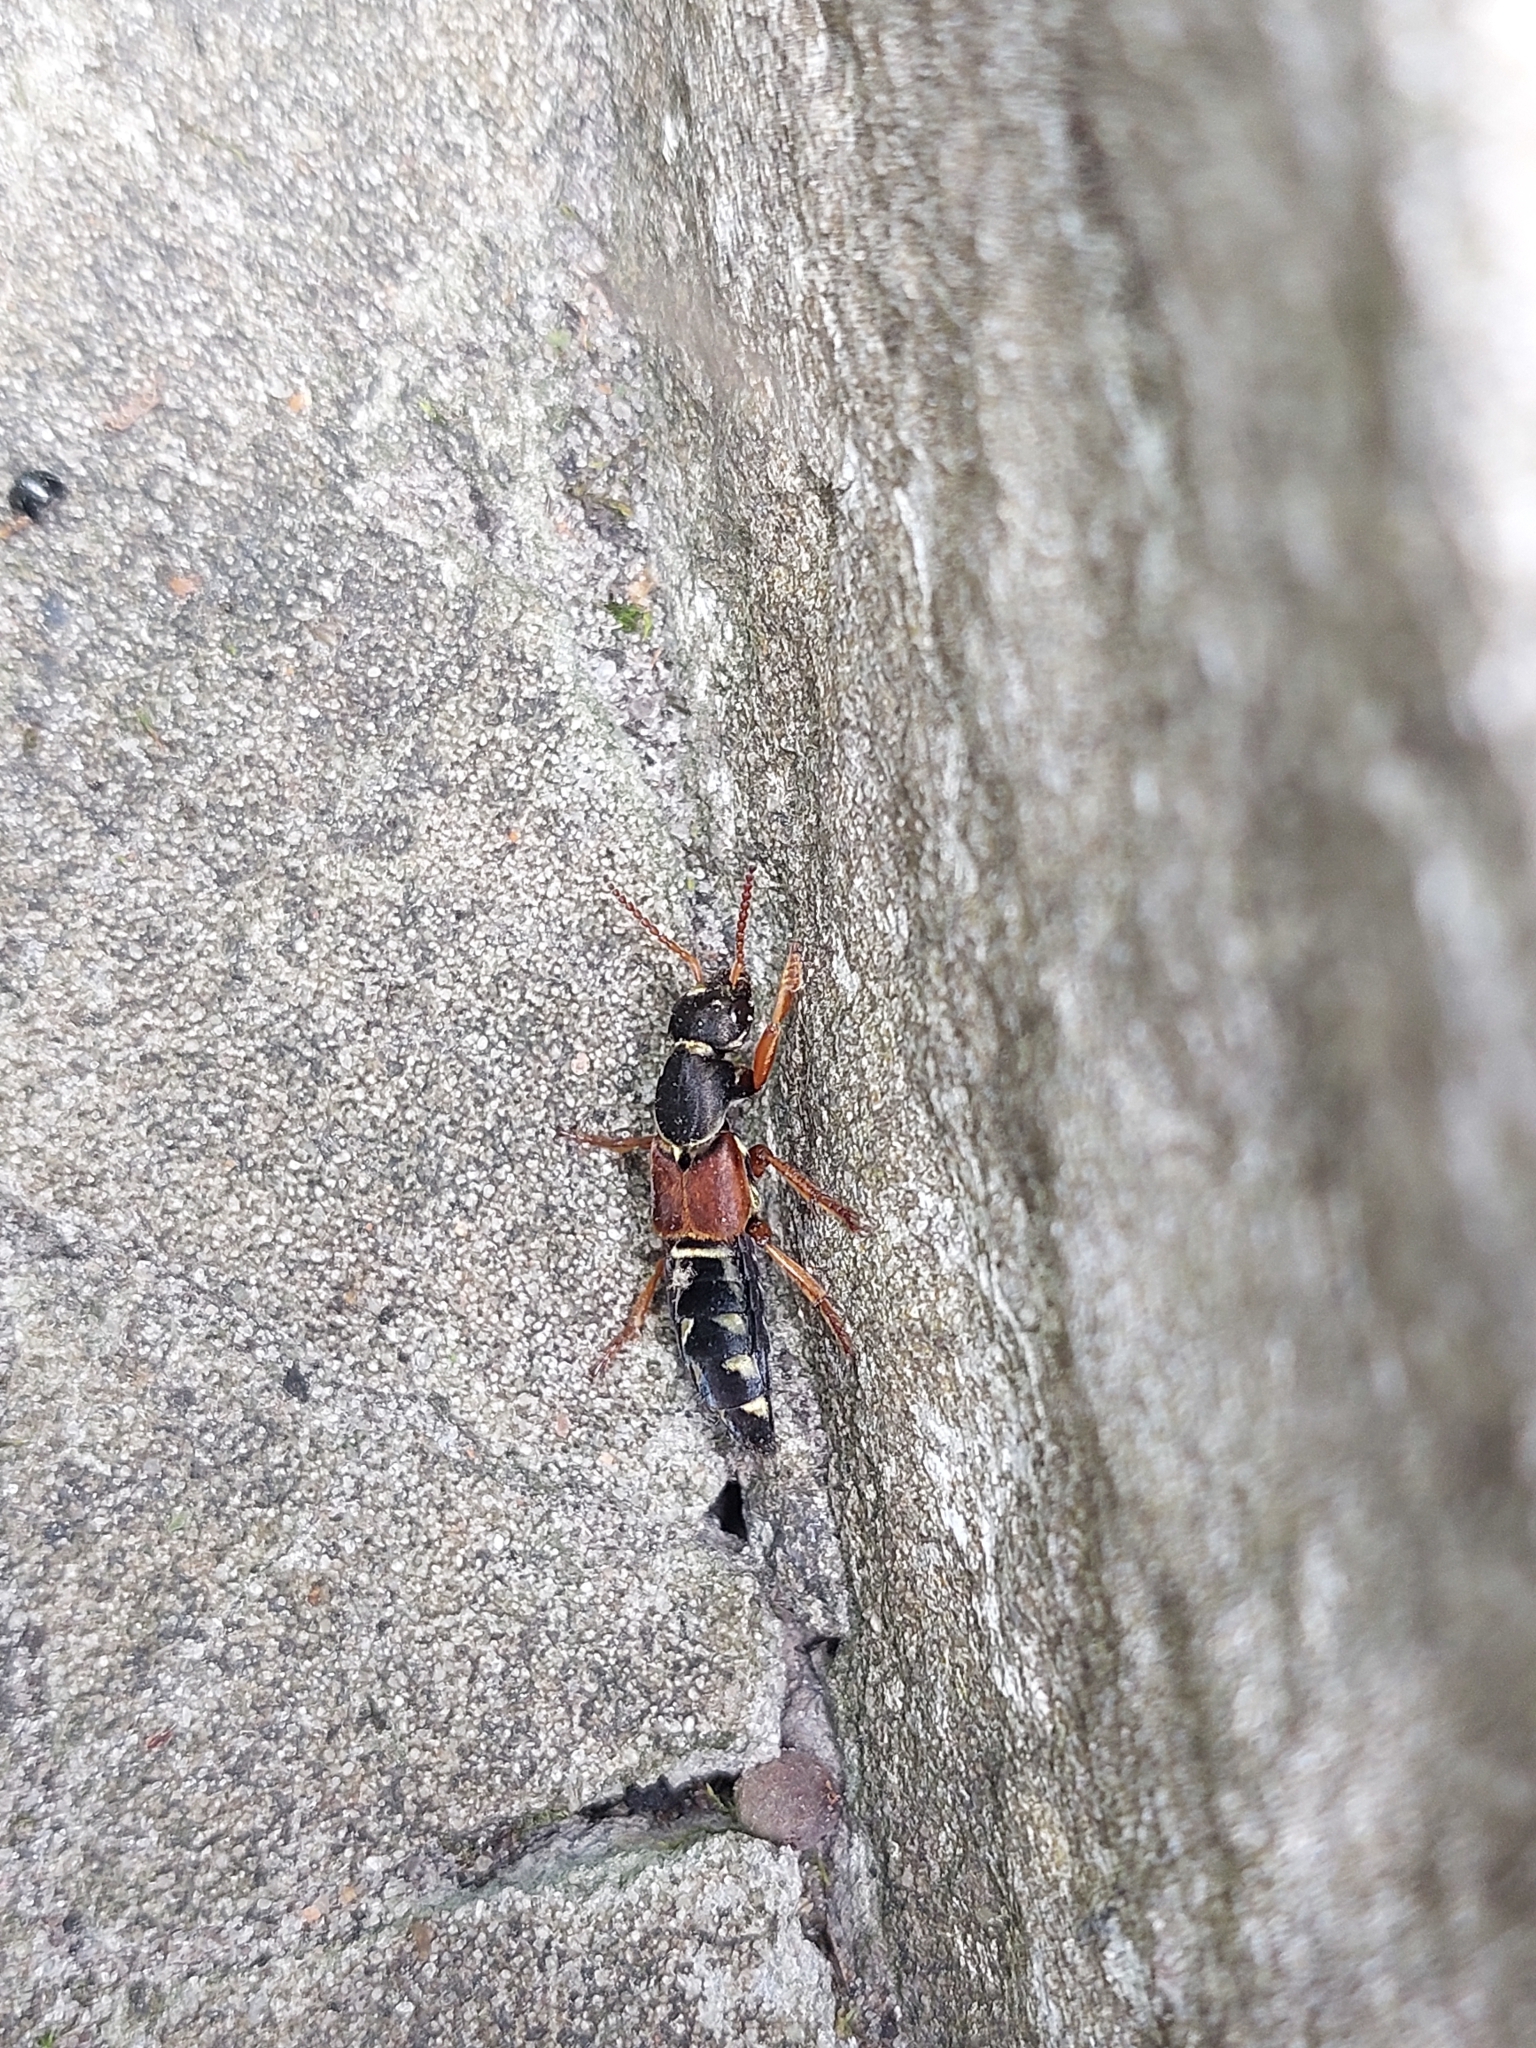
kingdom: Animalia
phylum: Arthropoda
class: Insecta
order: Coleoptera
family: Staphylinidae
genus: Staphylinus
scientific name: Staphylinus caesareus
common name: Staph beetle
